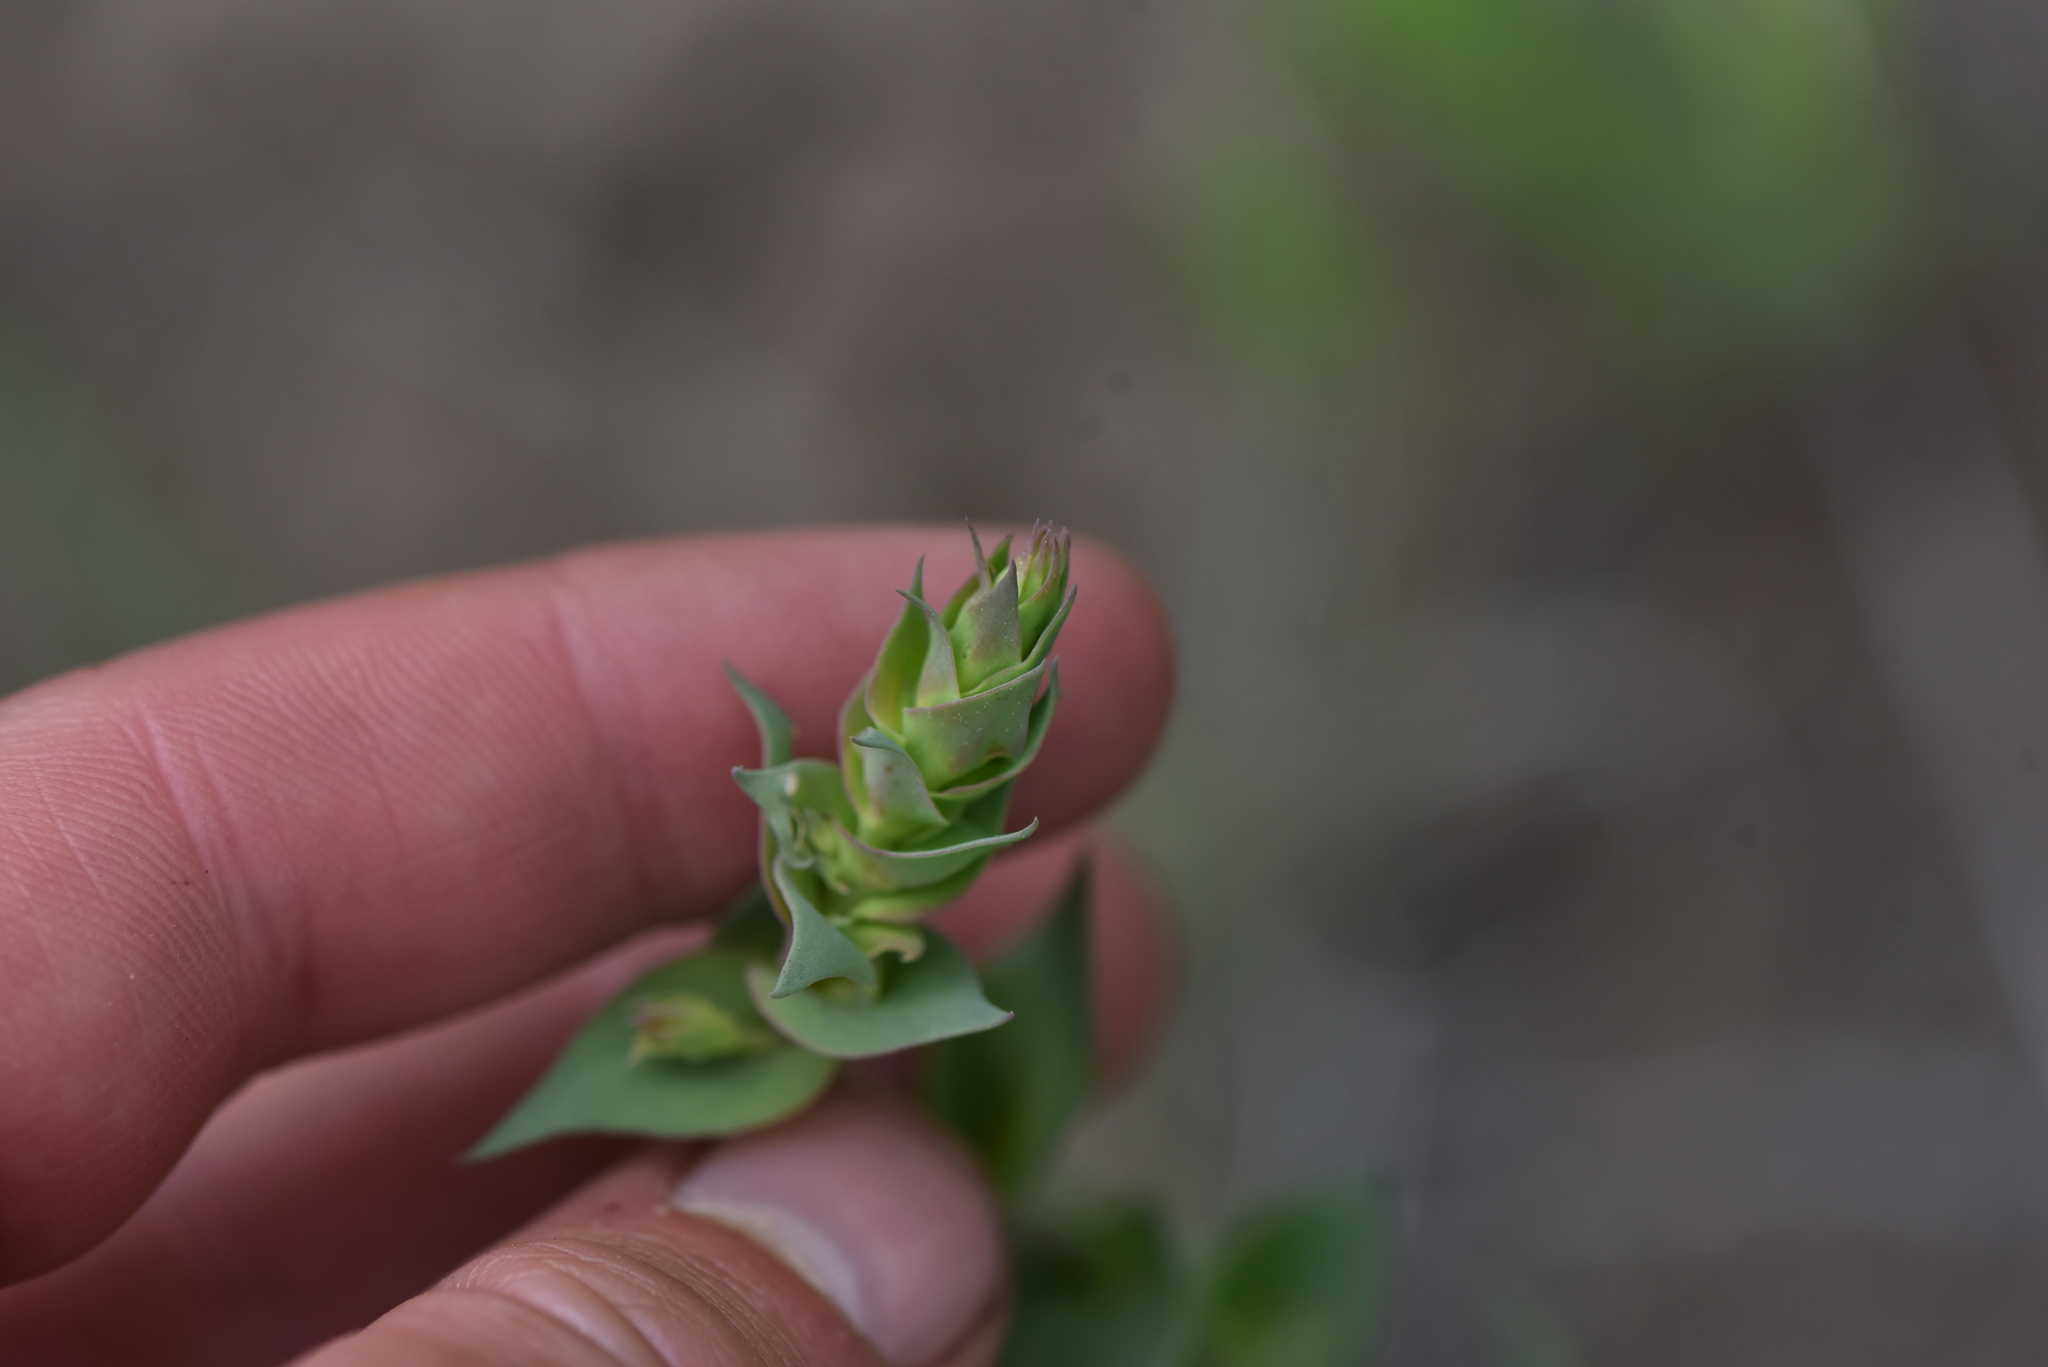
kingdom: Plantae
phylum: Tracheophyta
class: Magnoliopsida
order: Lamiales
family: Plantaginaceae
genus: Linaria
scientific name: Linaria dalmatica
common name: Dalmatian toadflax
